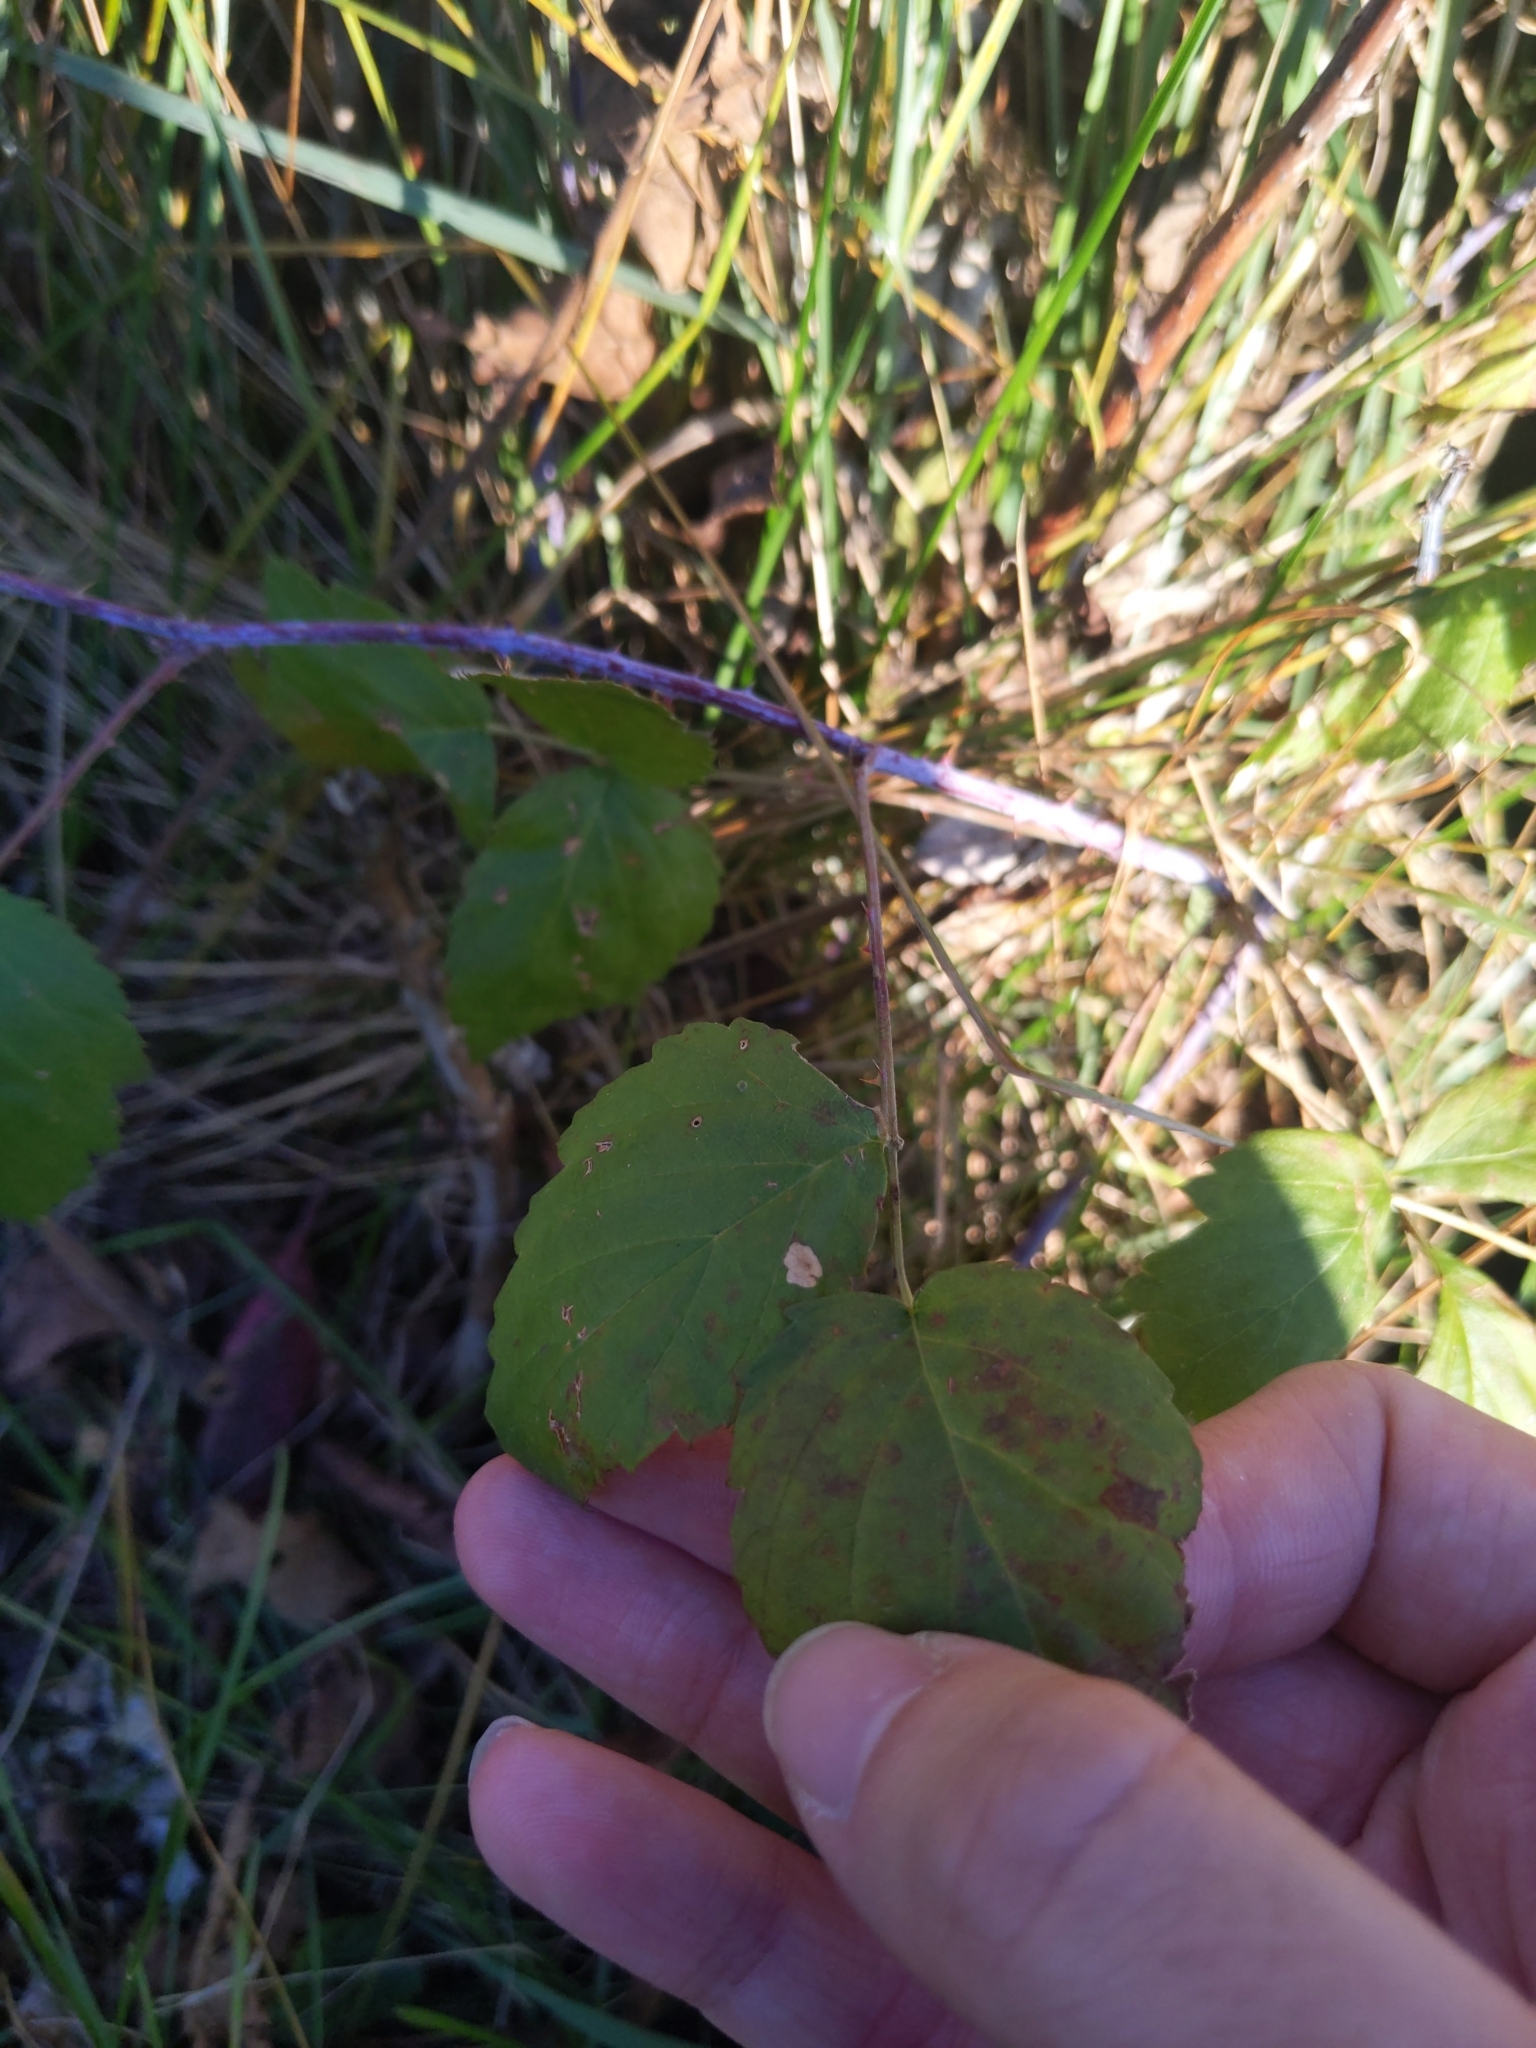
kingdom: Animalia
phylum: Arthropoda
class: Insecta
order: Lepidoptera
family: Coleophoridae
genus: Coleophora
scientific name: Coleophora cretaticostella
